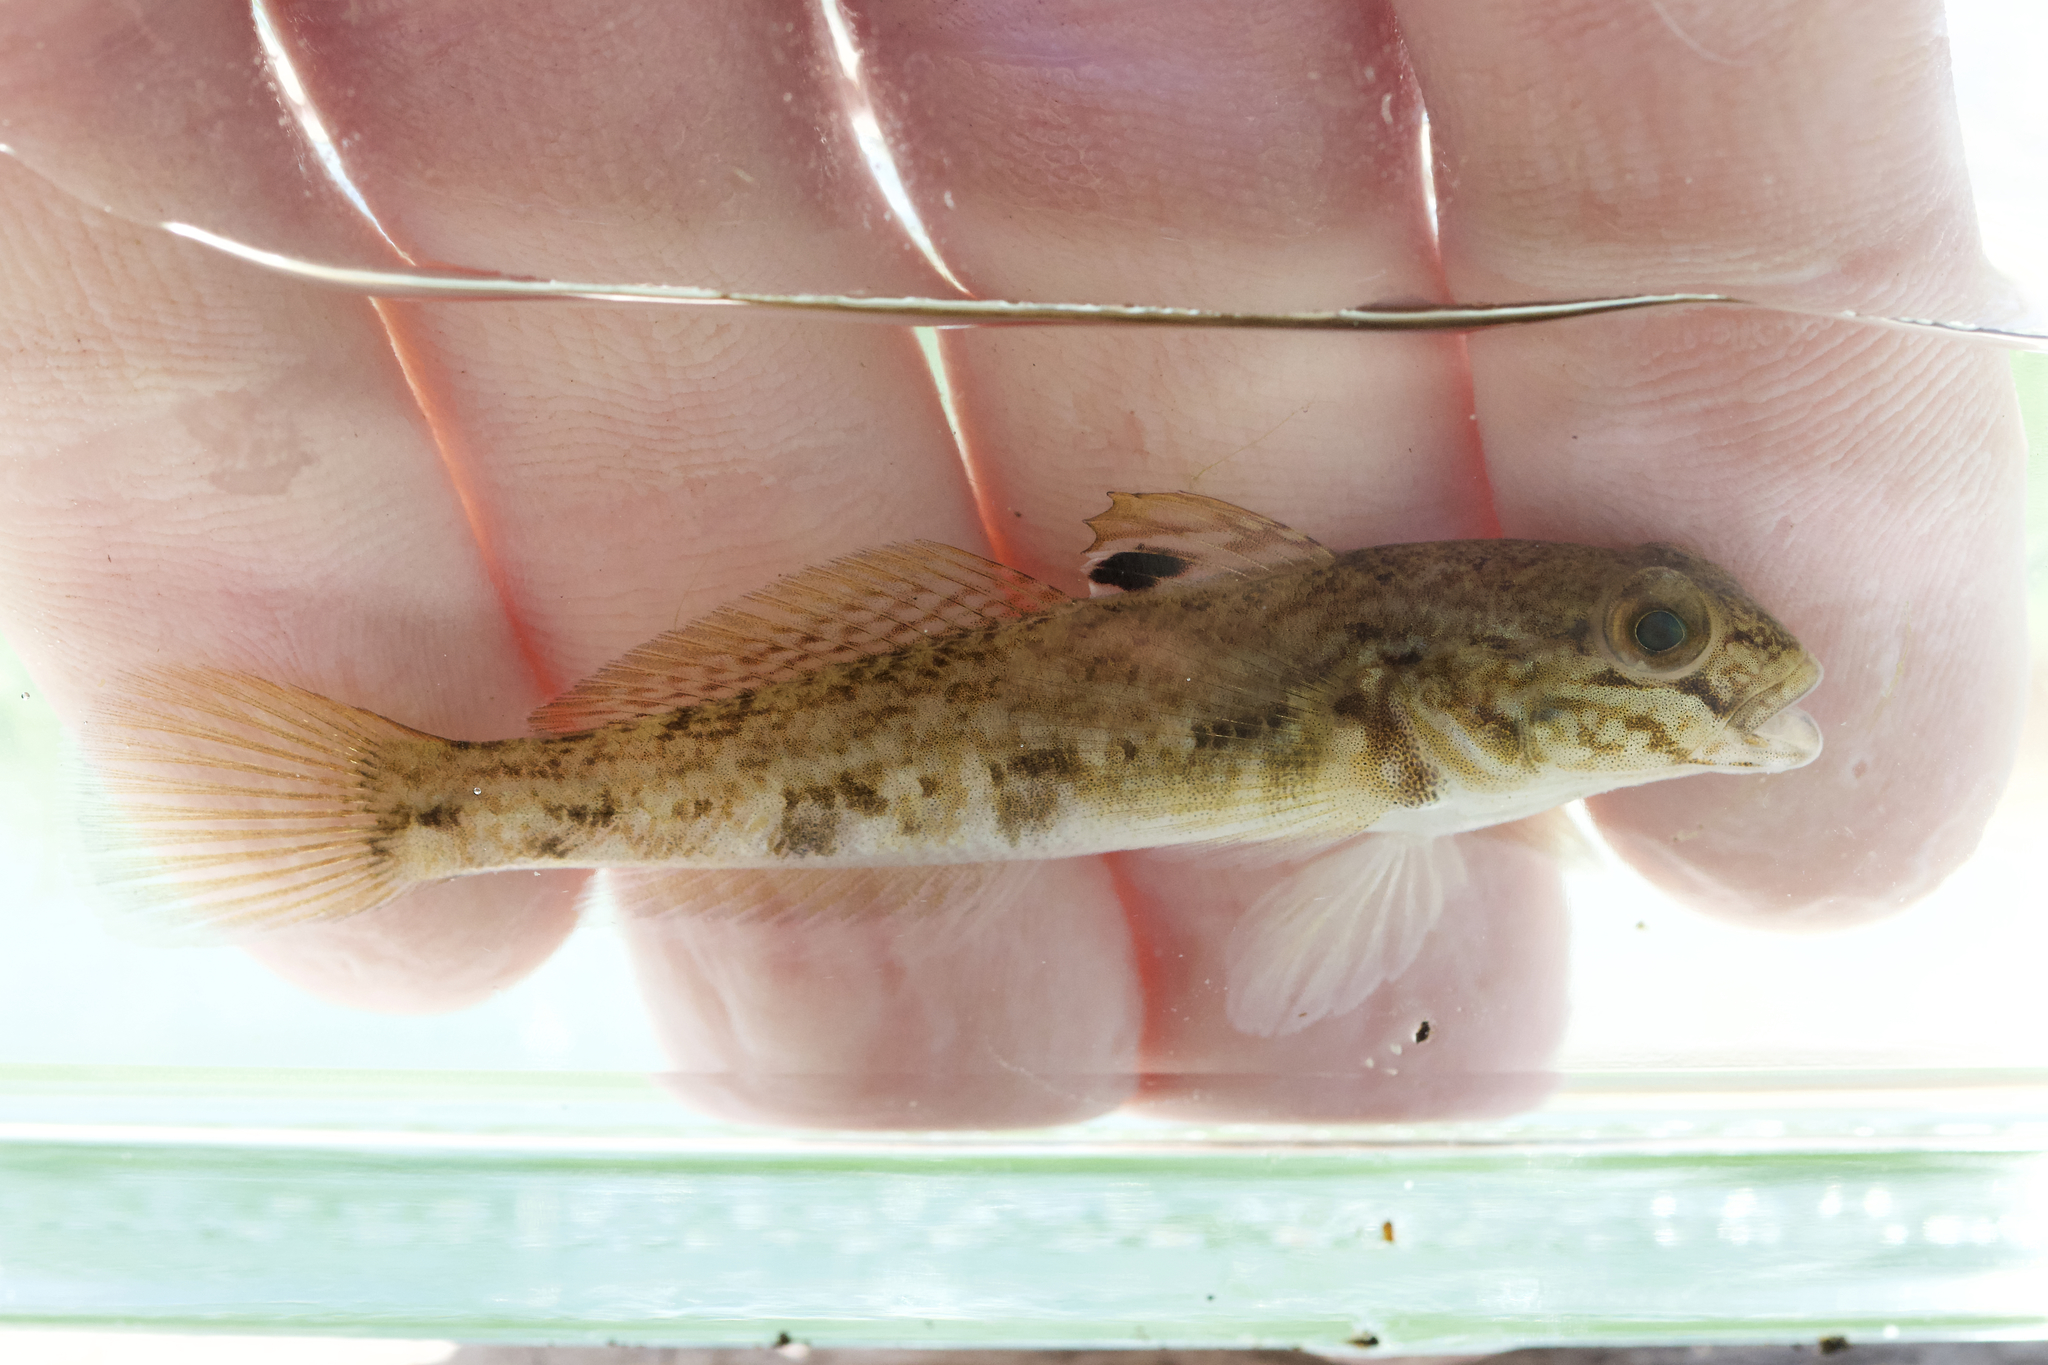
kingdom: Animalia
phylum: Chordata
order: Perciformes
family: Gobiidae
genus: Neogobius
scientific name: Neogobius melanostomus
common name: Round goby
